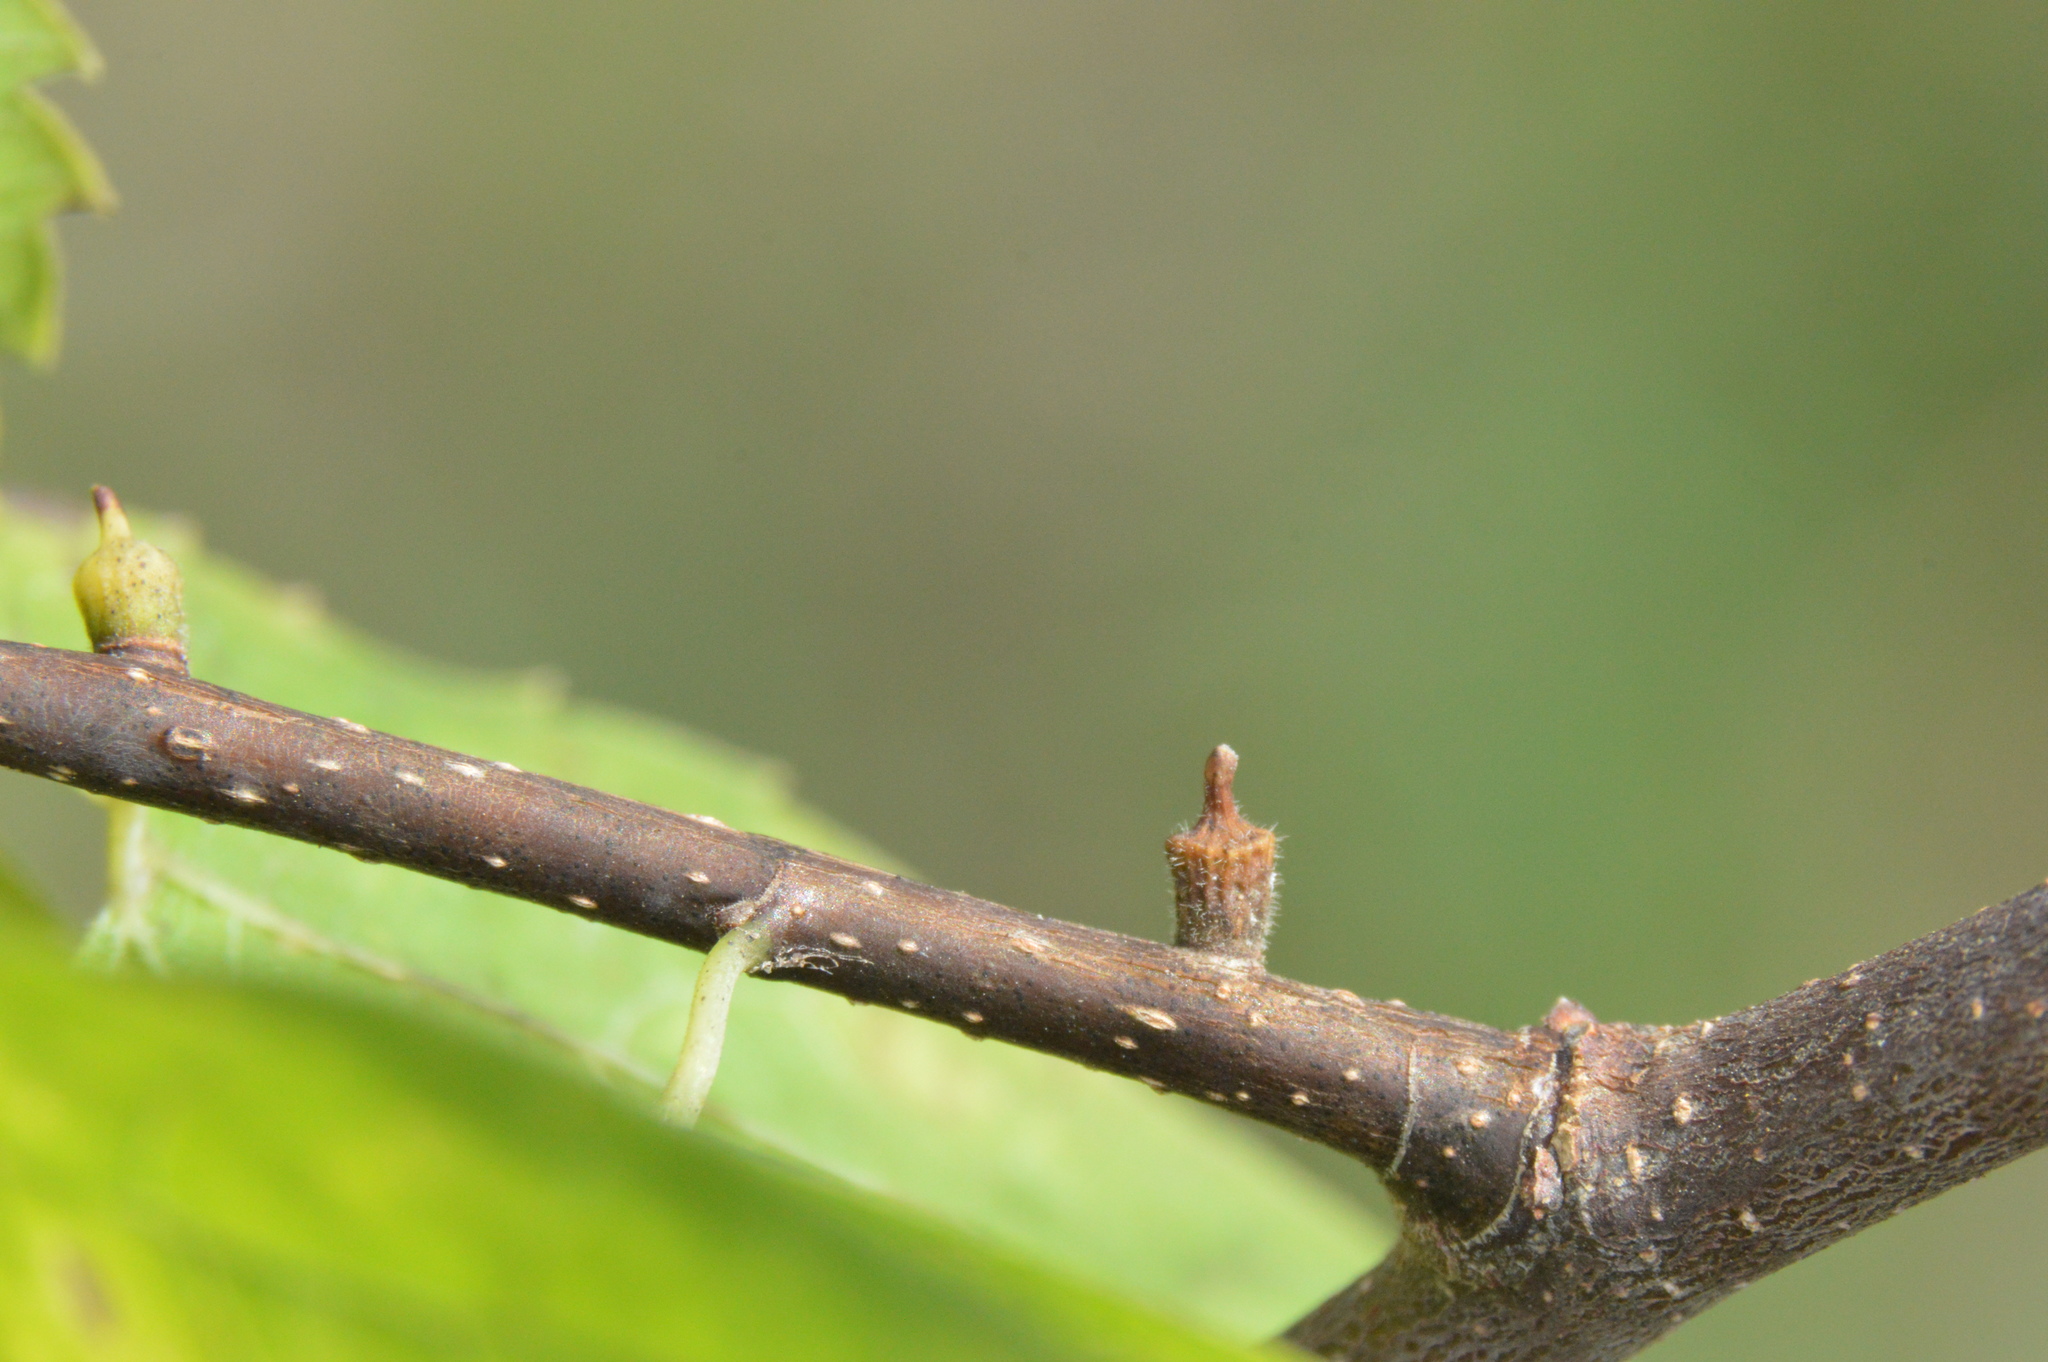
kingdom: Animalia
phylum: Arthropoda
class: Insecta
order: Diptera
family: Cecidomyiidae
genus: Celticecis
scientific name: Celticecis ramicola
